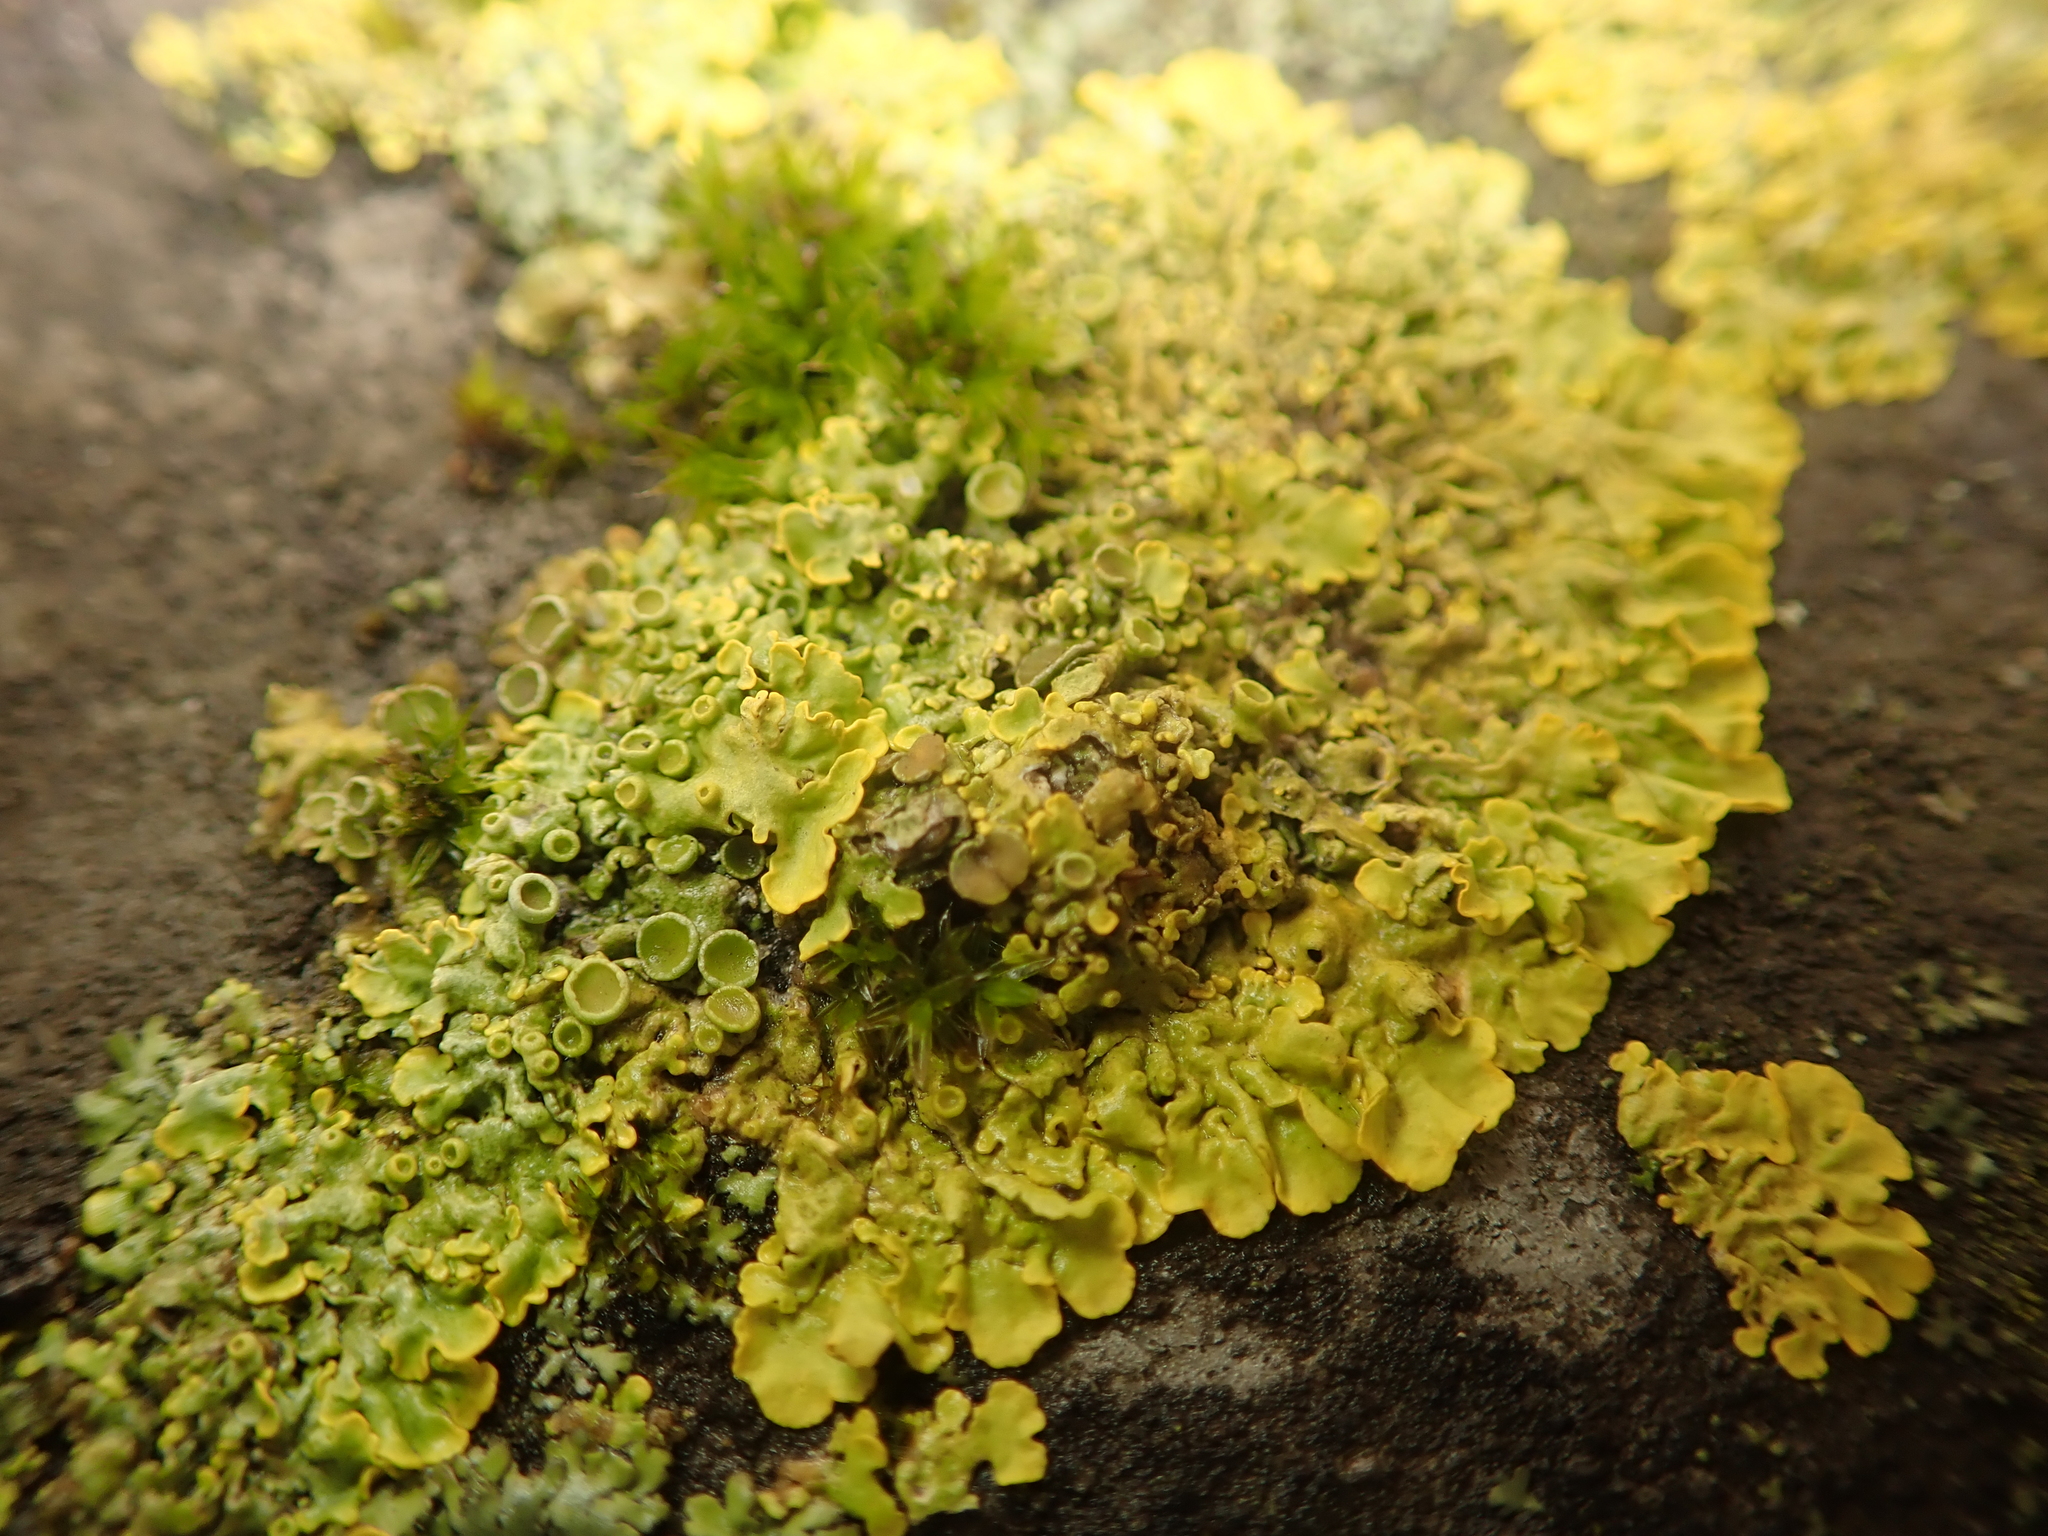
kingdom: Fungi
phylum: Ascomycota
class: Lecanoromycetes
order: Teloschistales
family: Teloschistaceae
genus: Xanthoria
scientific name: Xanthoria parietina
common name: Common orange lichen
